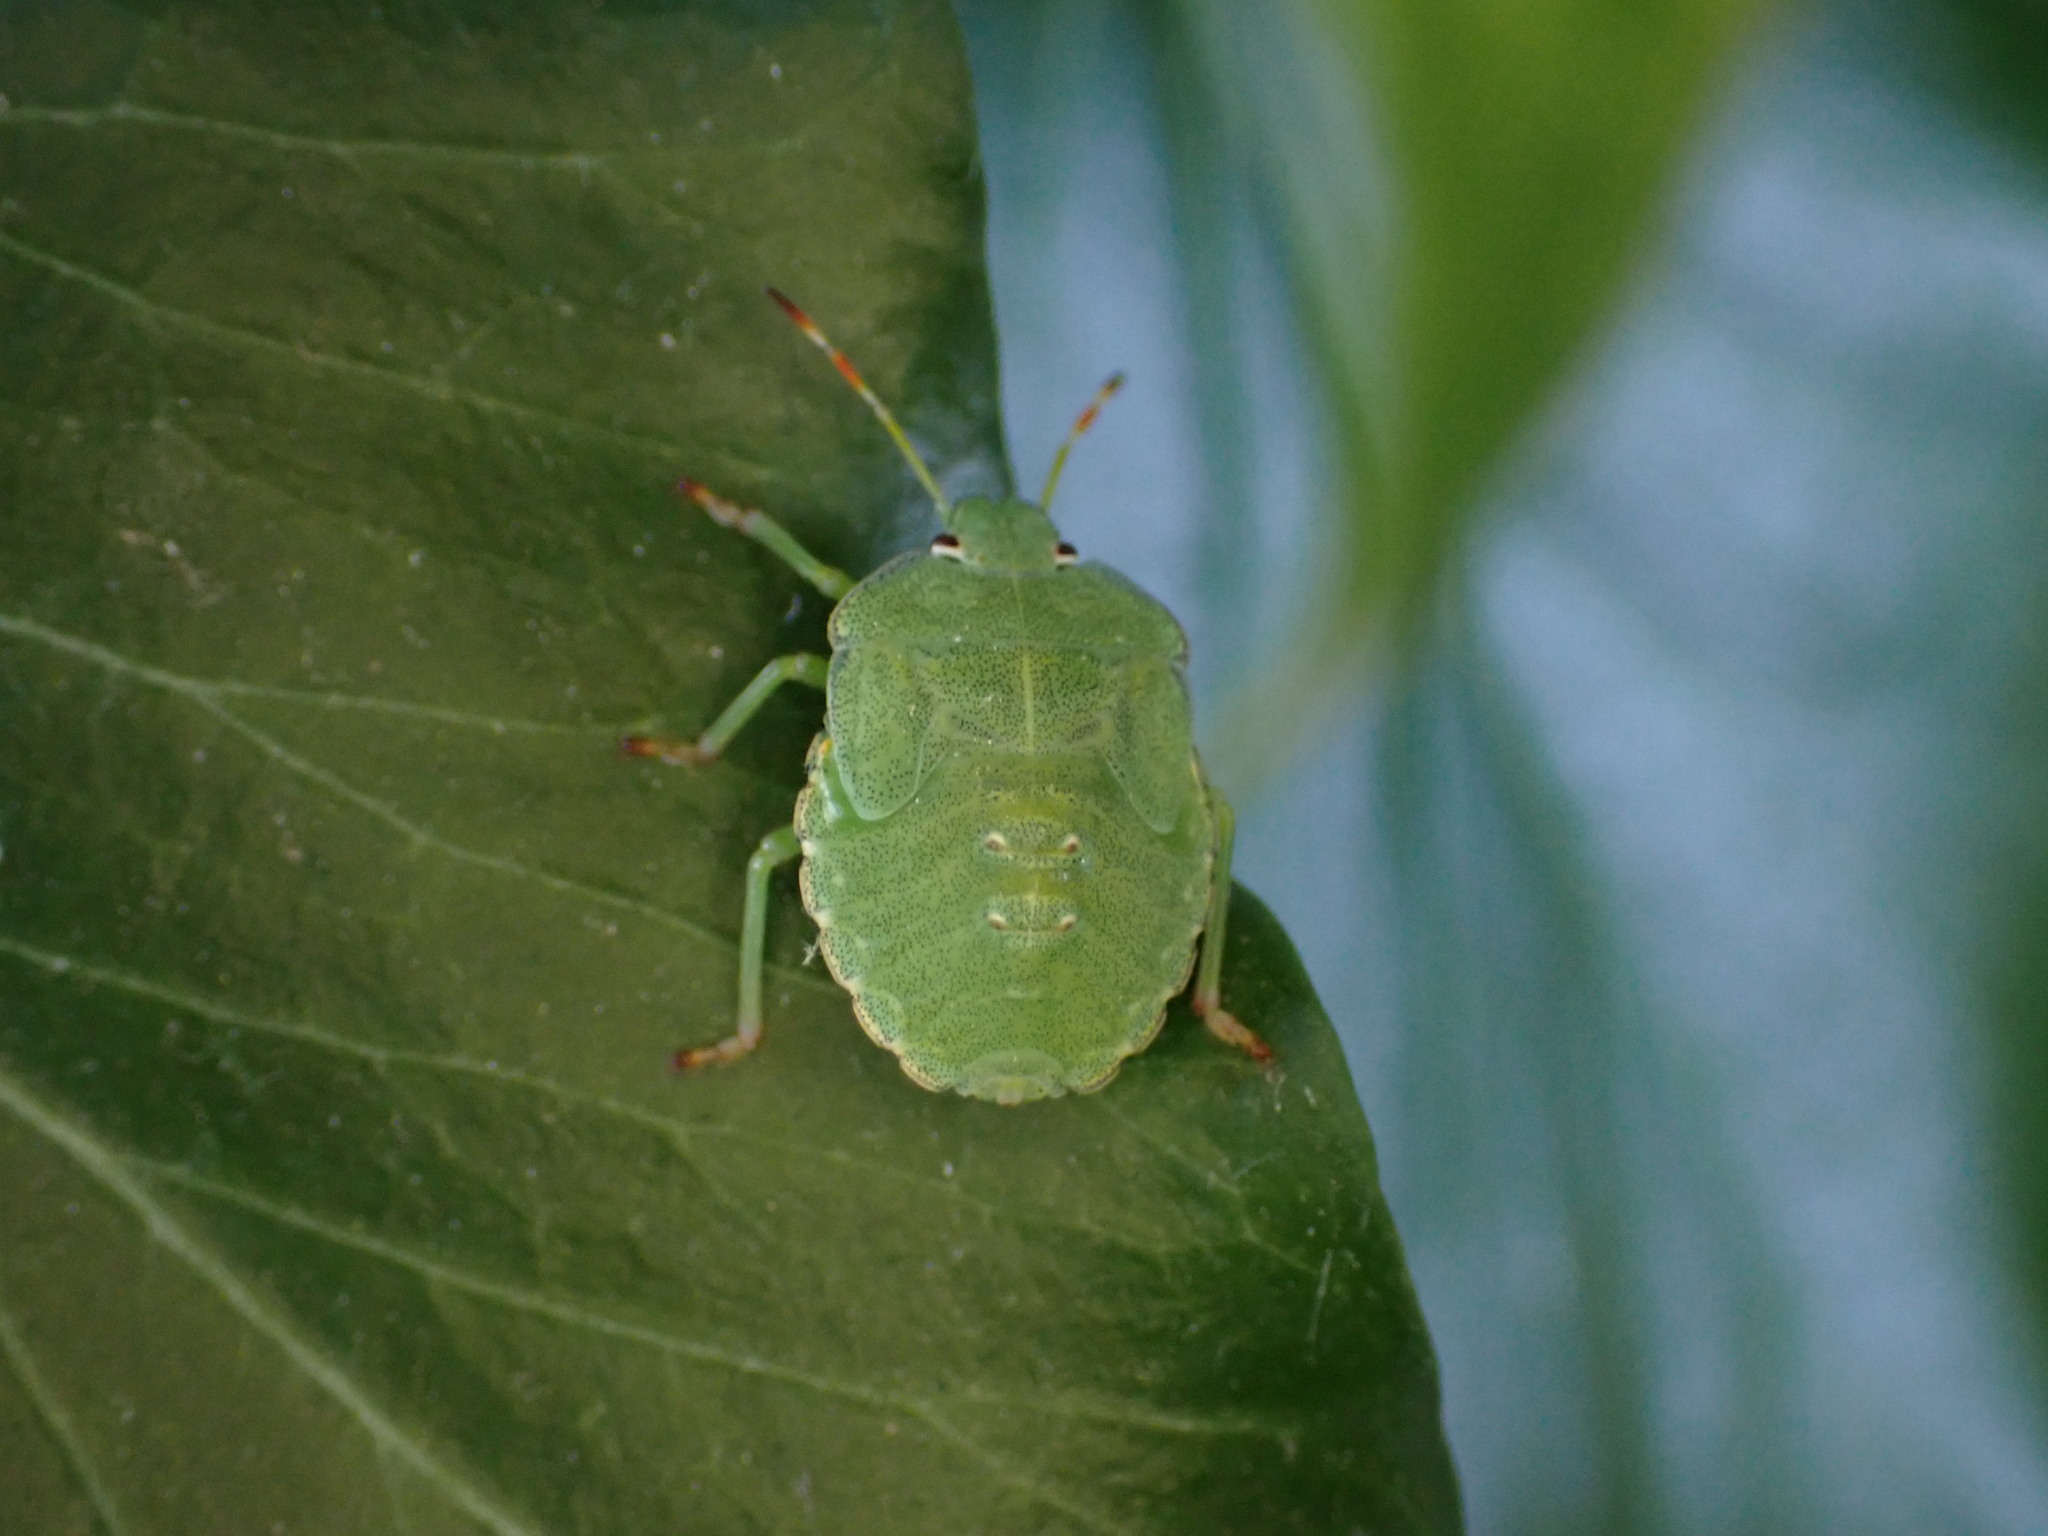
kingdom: Animalia
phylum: Arthropoda
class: Insecta
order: Hemiptera
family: Pentatomidae
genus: Palomena
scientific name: Palomena prasina
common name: Green shieldbug
